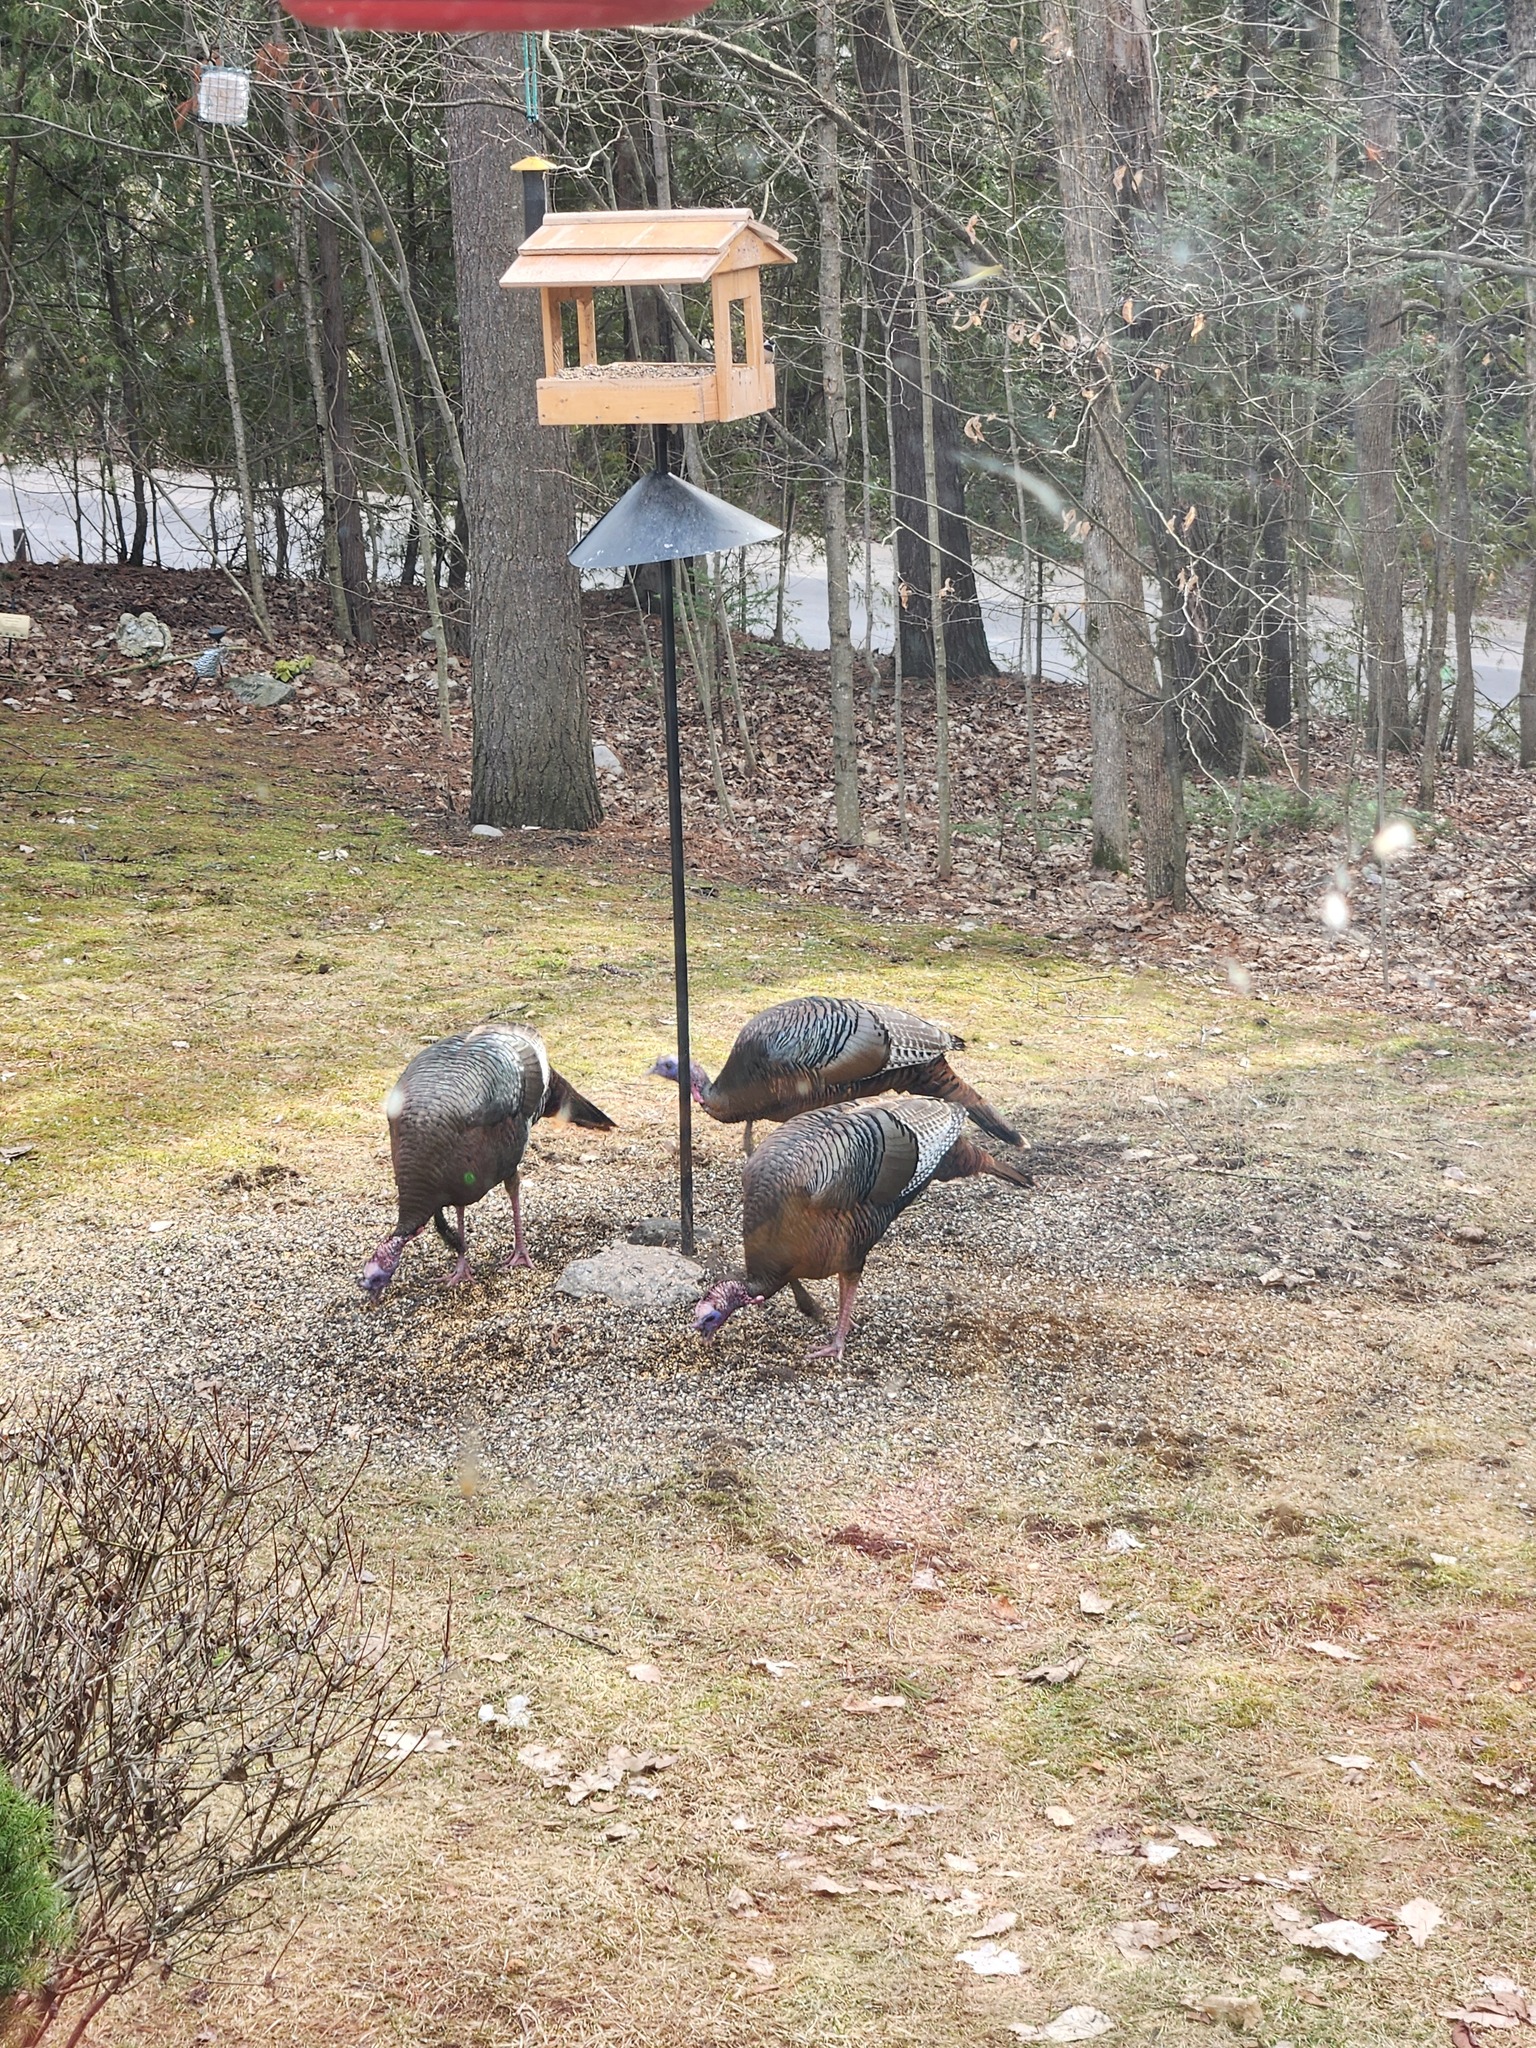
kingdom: Animalia
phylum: Chordata
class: Aves
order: Galliformes
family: Phasianidae
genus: Meleagris
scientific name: Meleagris gallopavo
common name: Wild turkey
